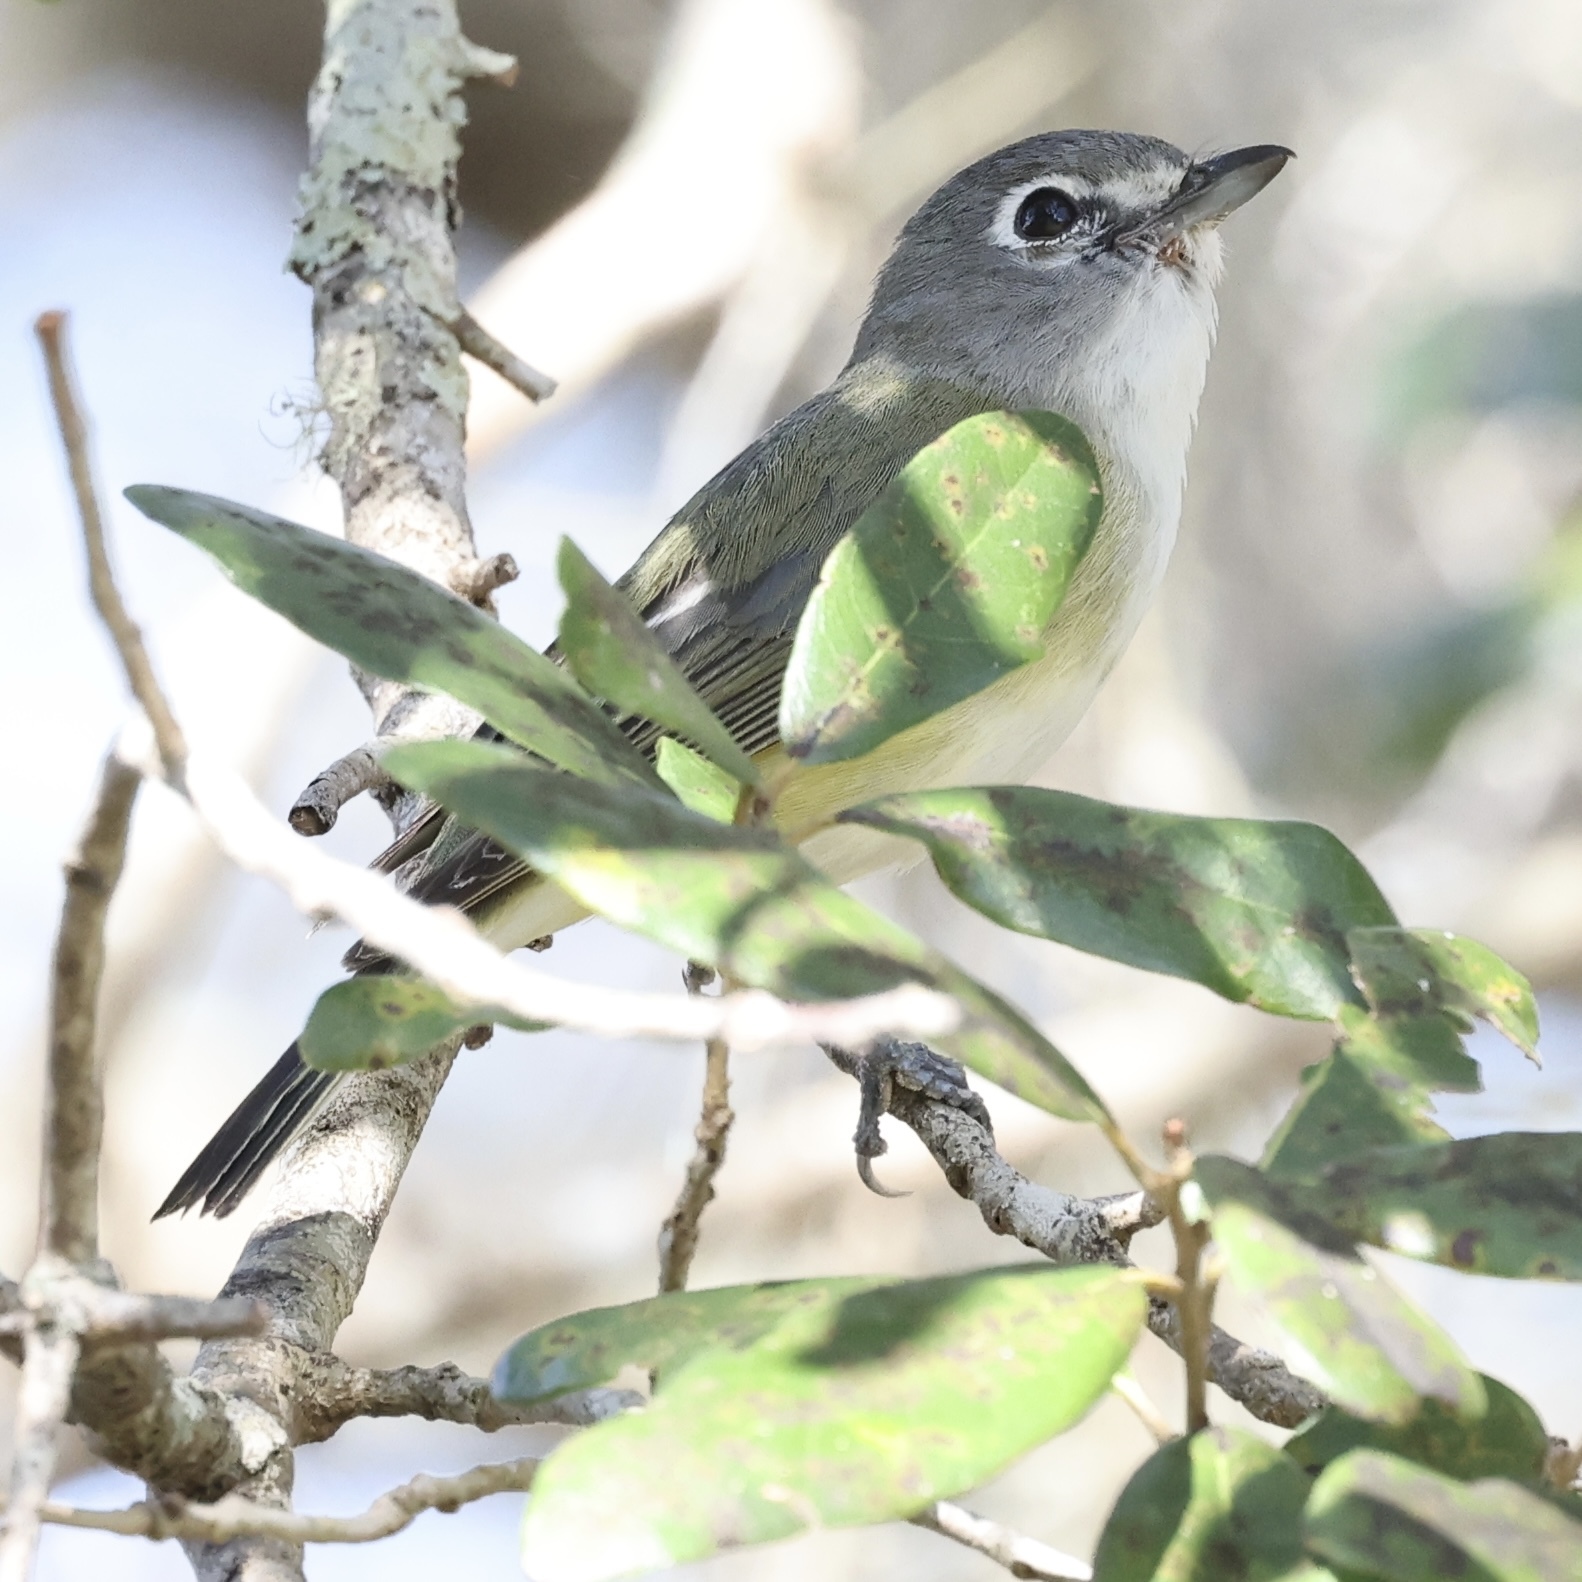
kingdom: Animalia
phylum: Chordata
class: Aves
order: Passeriformes
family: Vireonidae
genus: Vireo
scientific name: Vireo solitarius
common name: Blue-headed vireo
